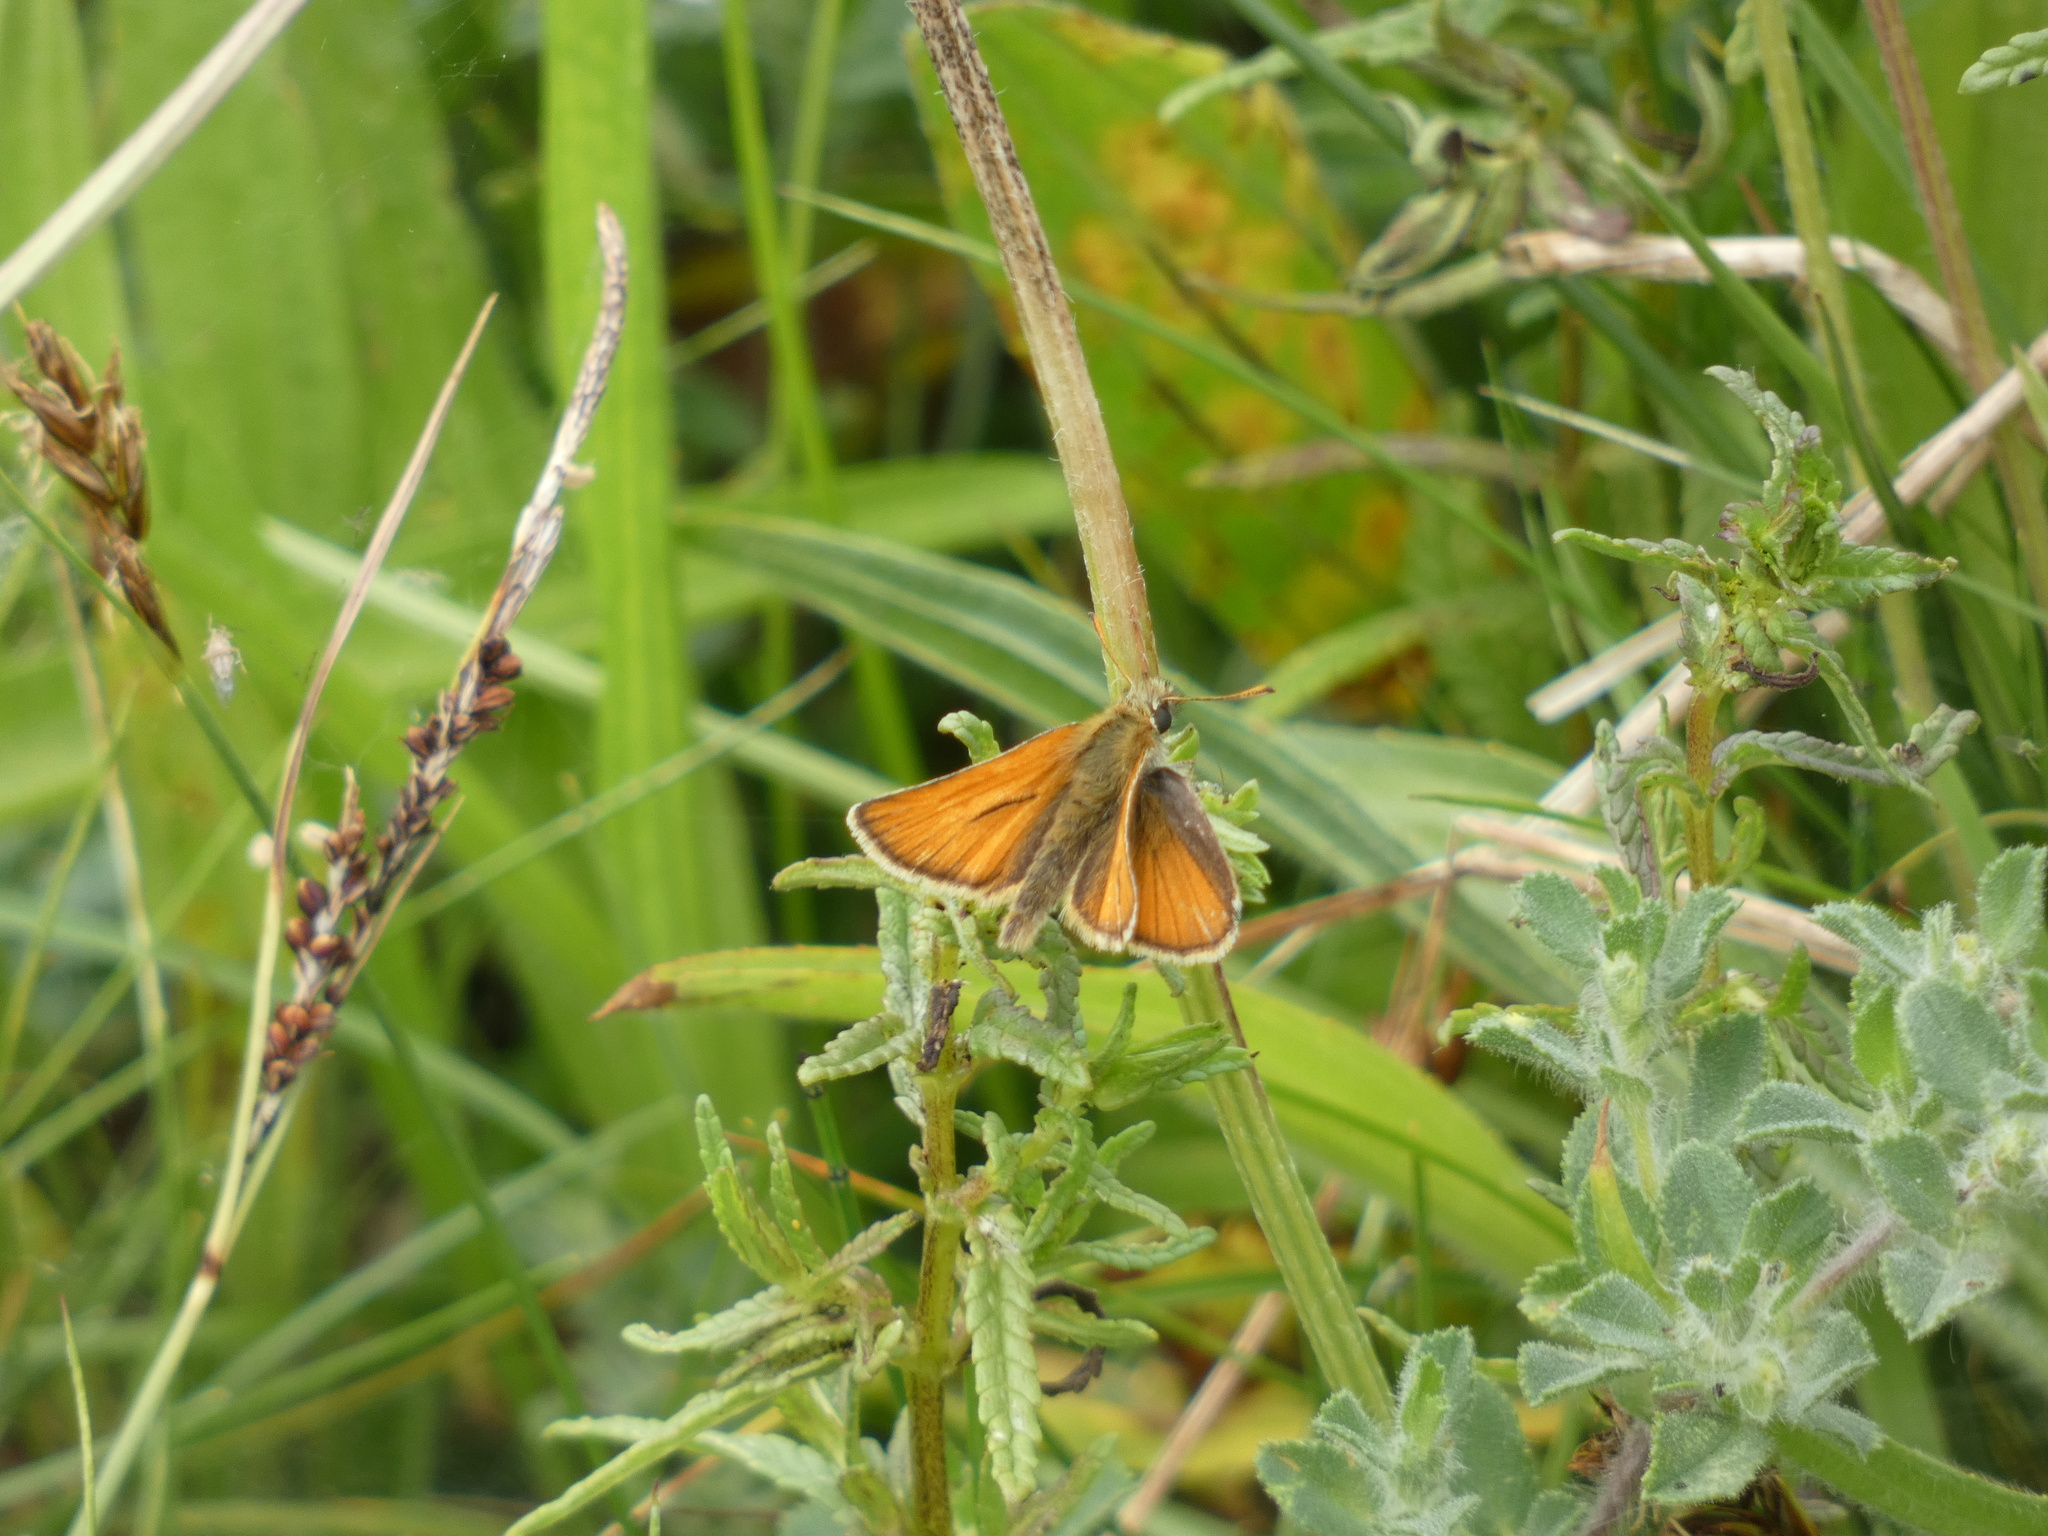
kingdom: Animalia
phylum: Arthropoda
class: Insecta
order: Lepidoptera
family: Hesperiidae
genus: Thymelicus
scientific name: Thymelicus sylvestris
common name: Small skipper
